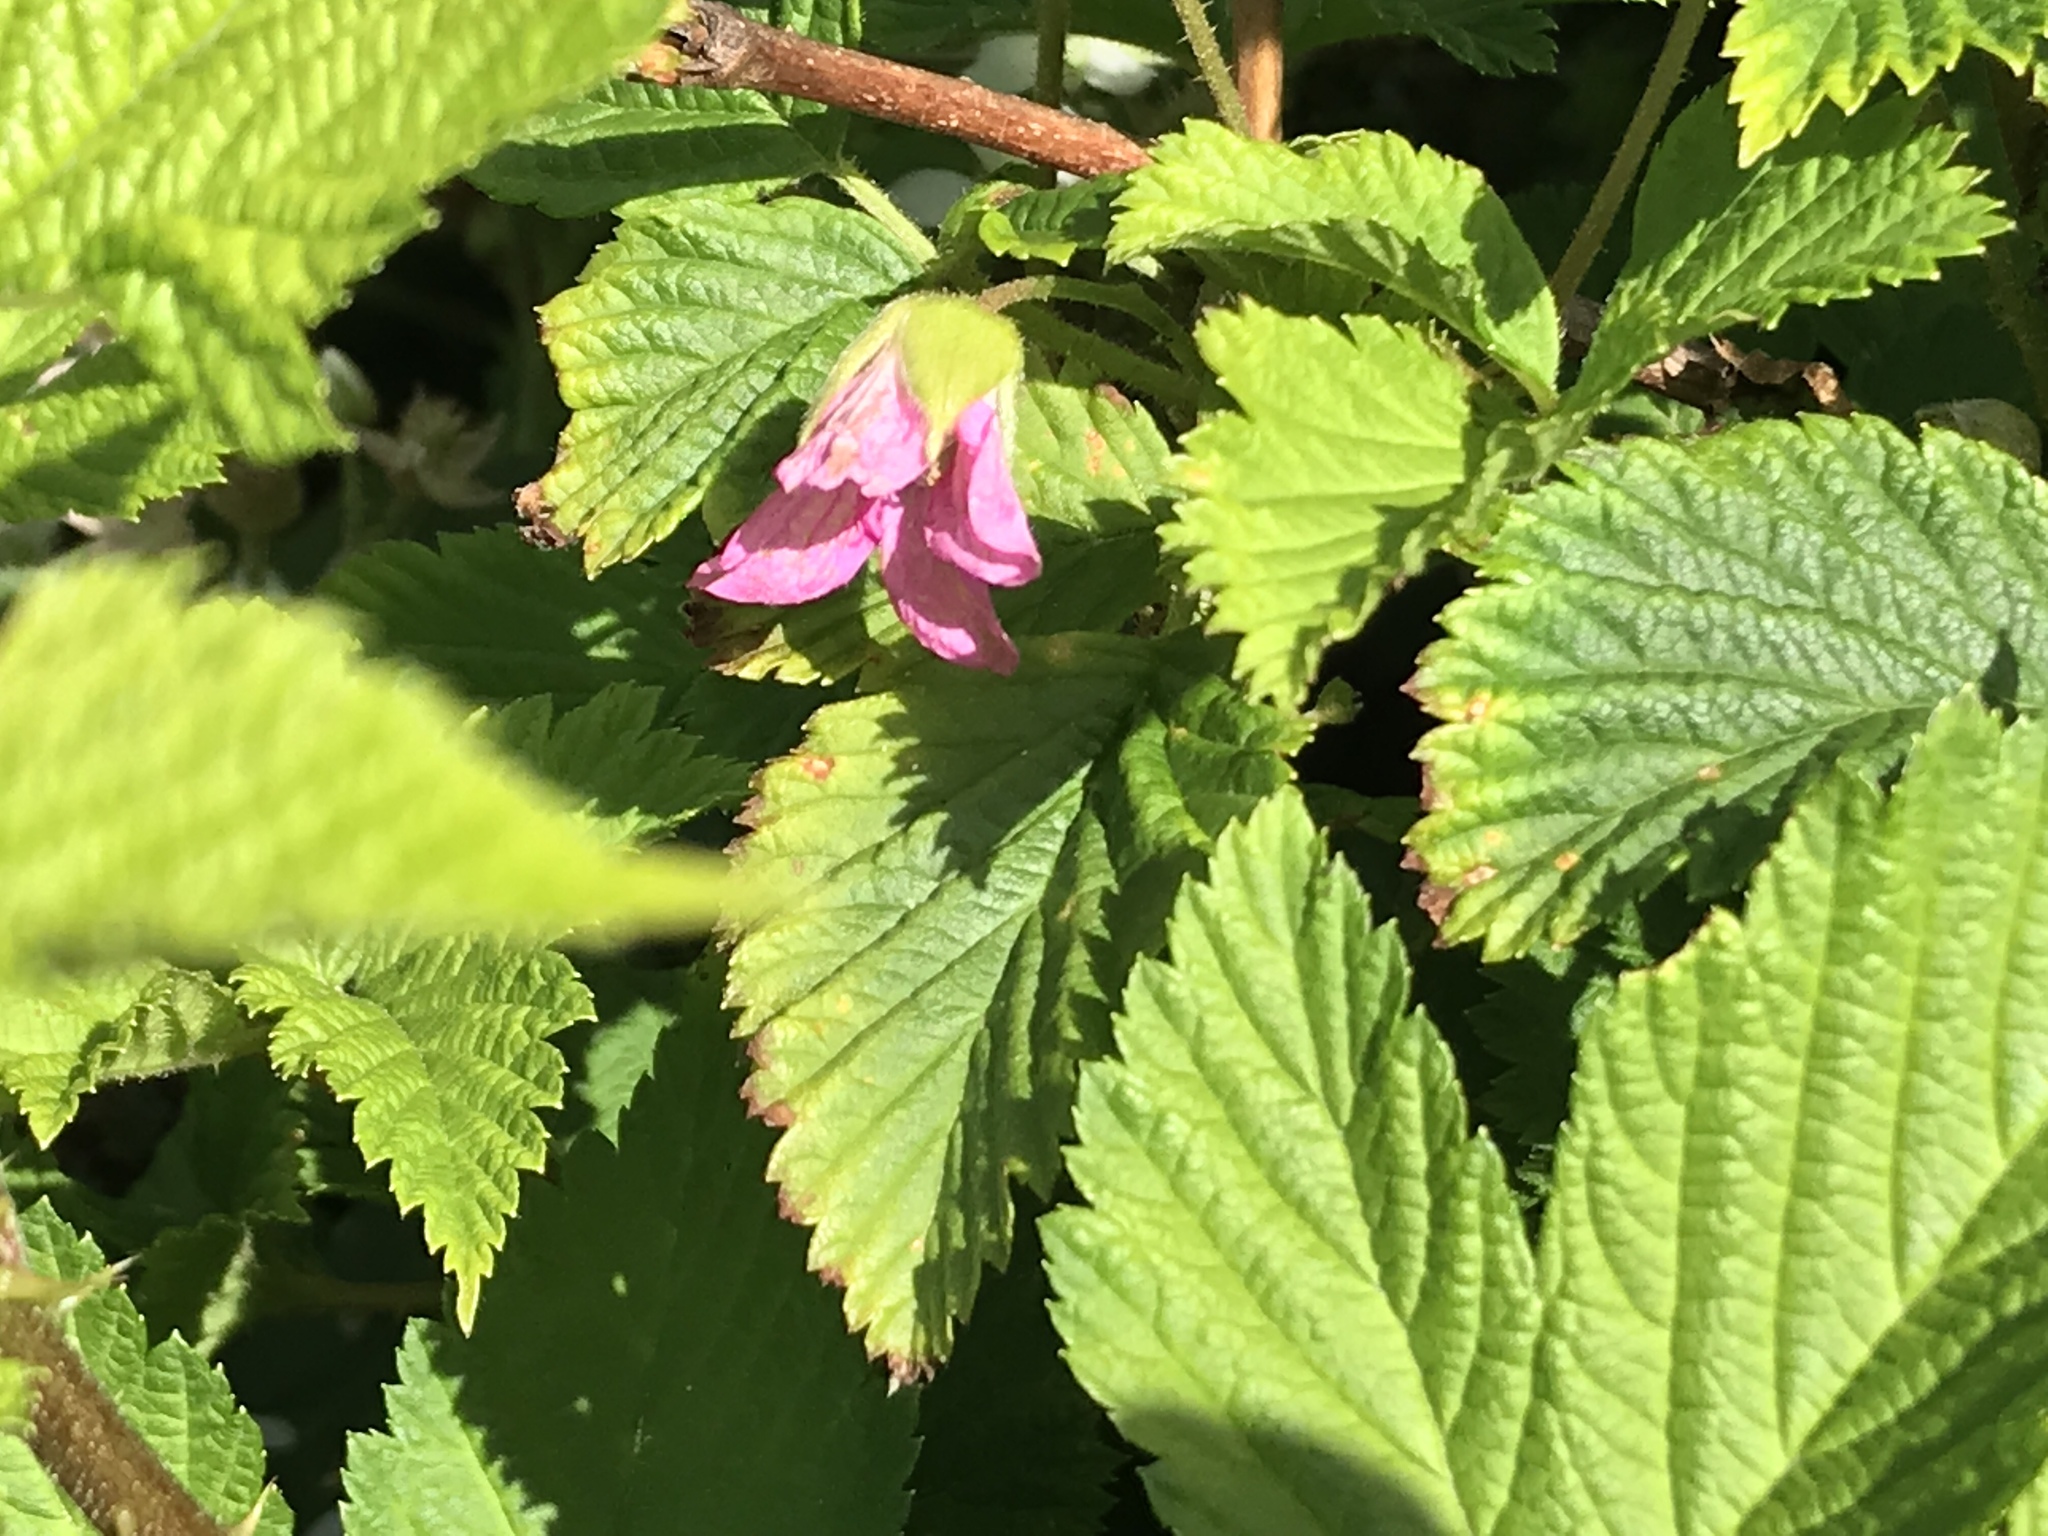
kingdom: Plantae
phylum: Tracheophyta
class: Magnoliopsida
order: Rosales
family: Rosaceae
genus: Rubus
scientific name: Rubus spectabilis
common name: Salmonberry
